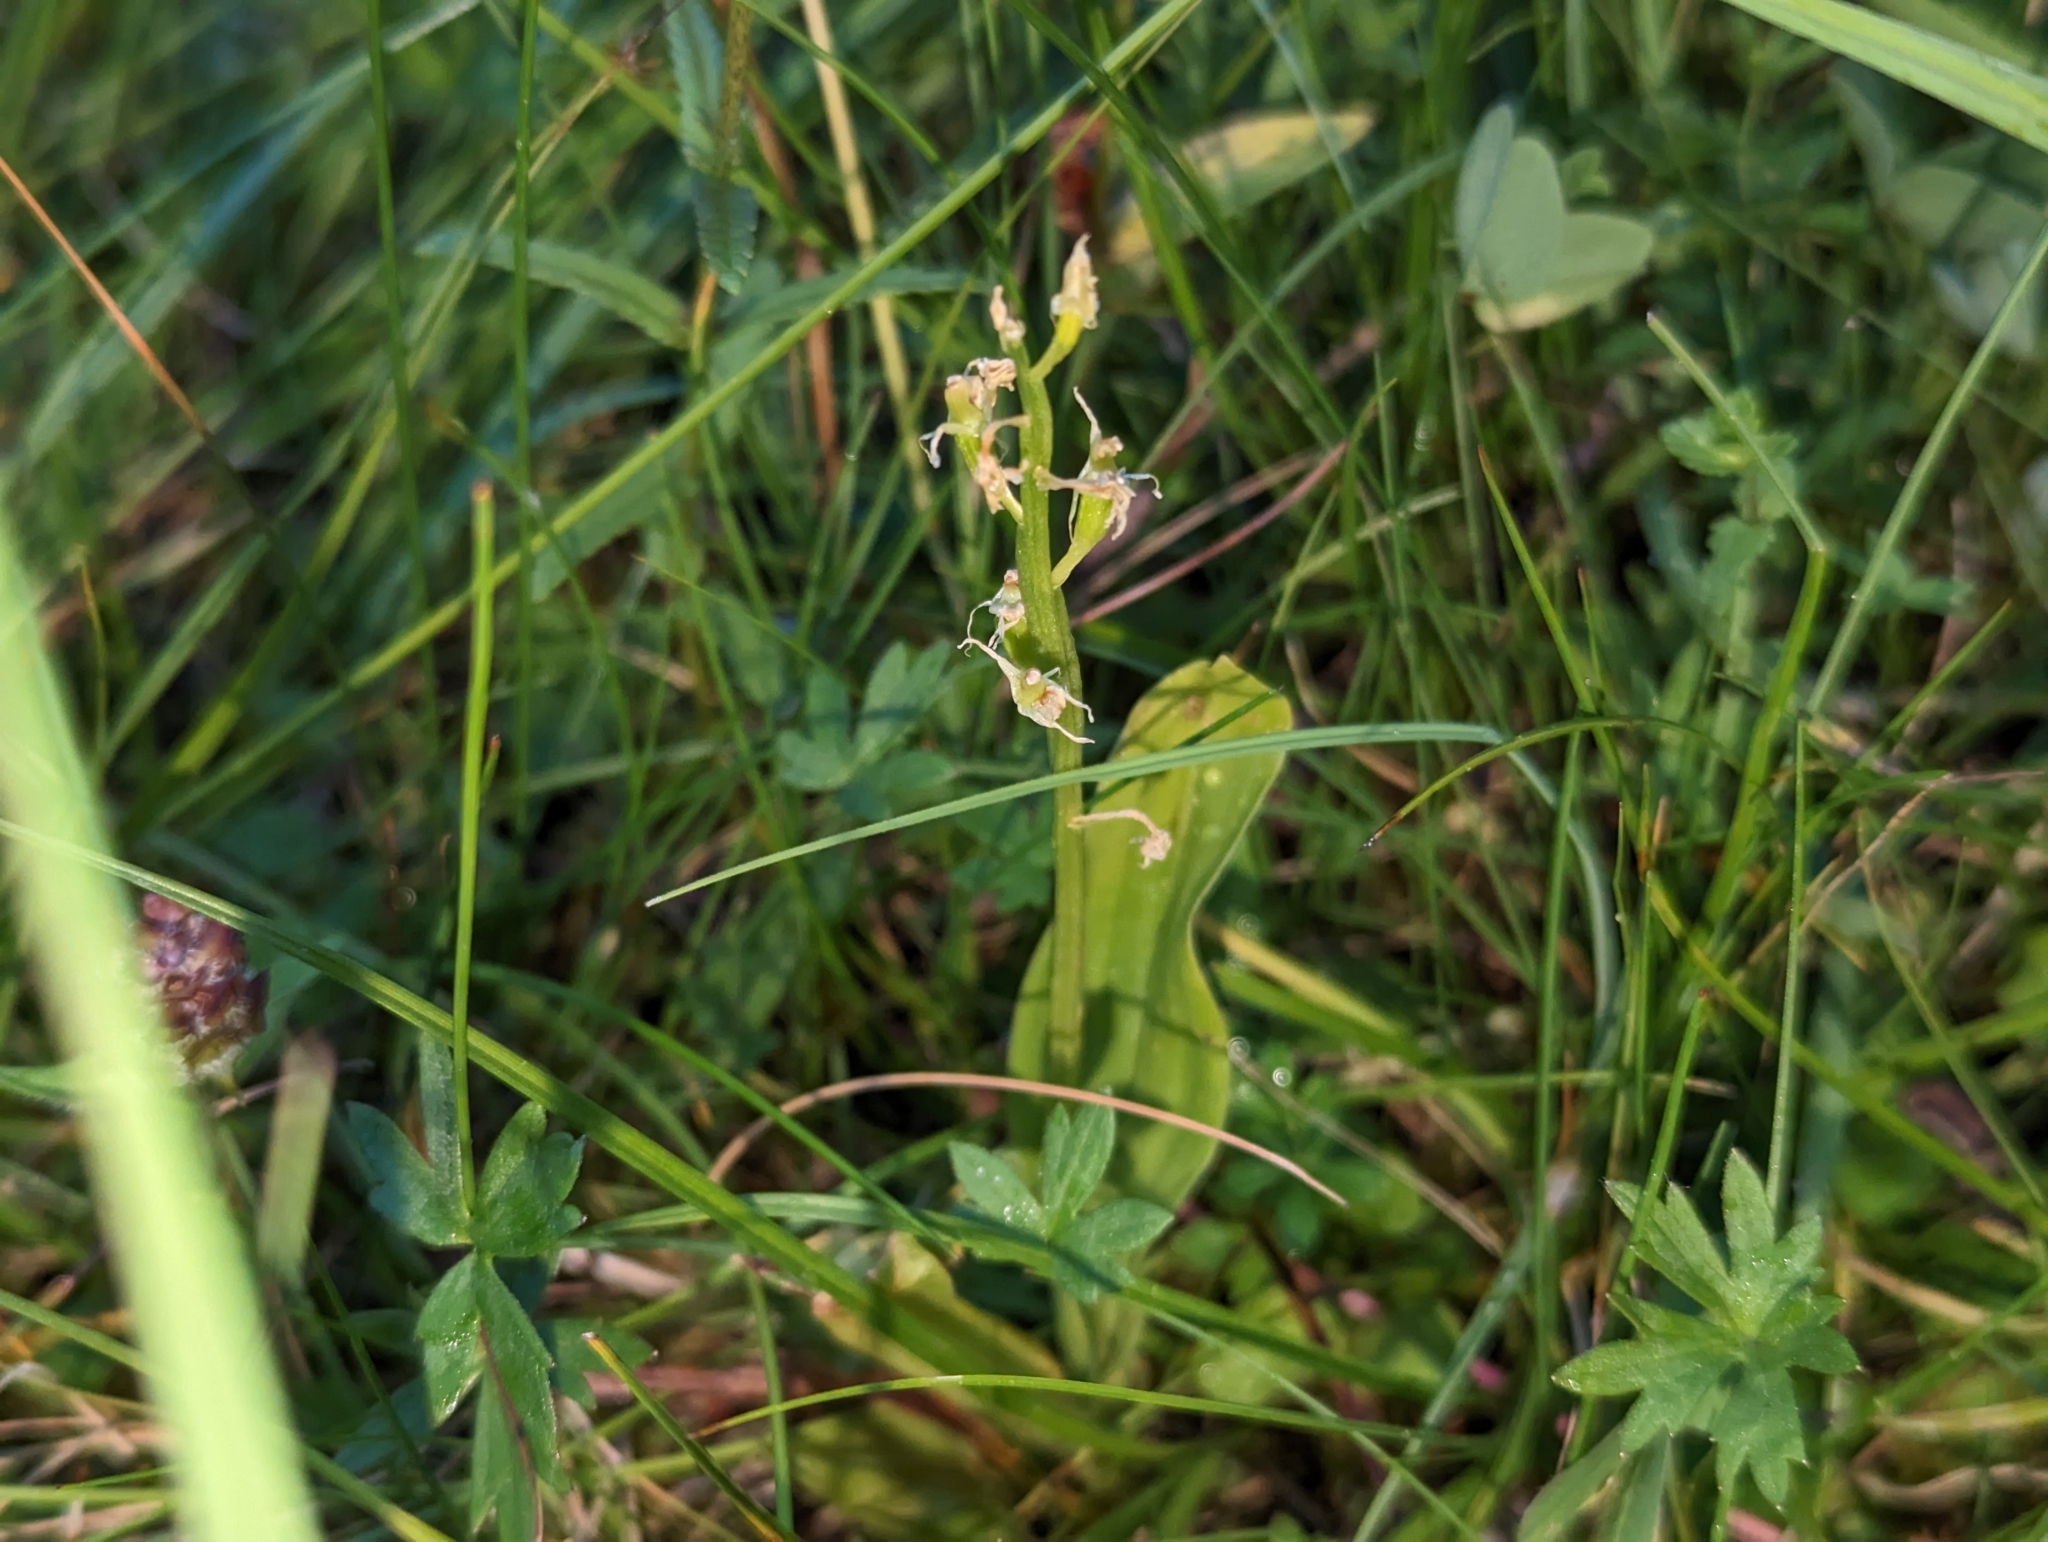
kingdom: Animalia
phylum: Arthropoda
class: Insecta
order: Coleoptera
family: Curculionidae
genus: Liparis
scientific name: Liparis loeselii
